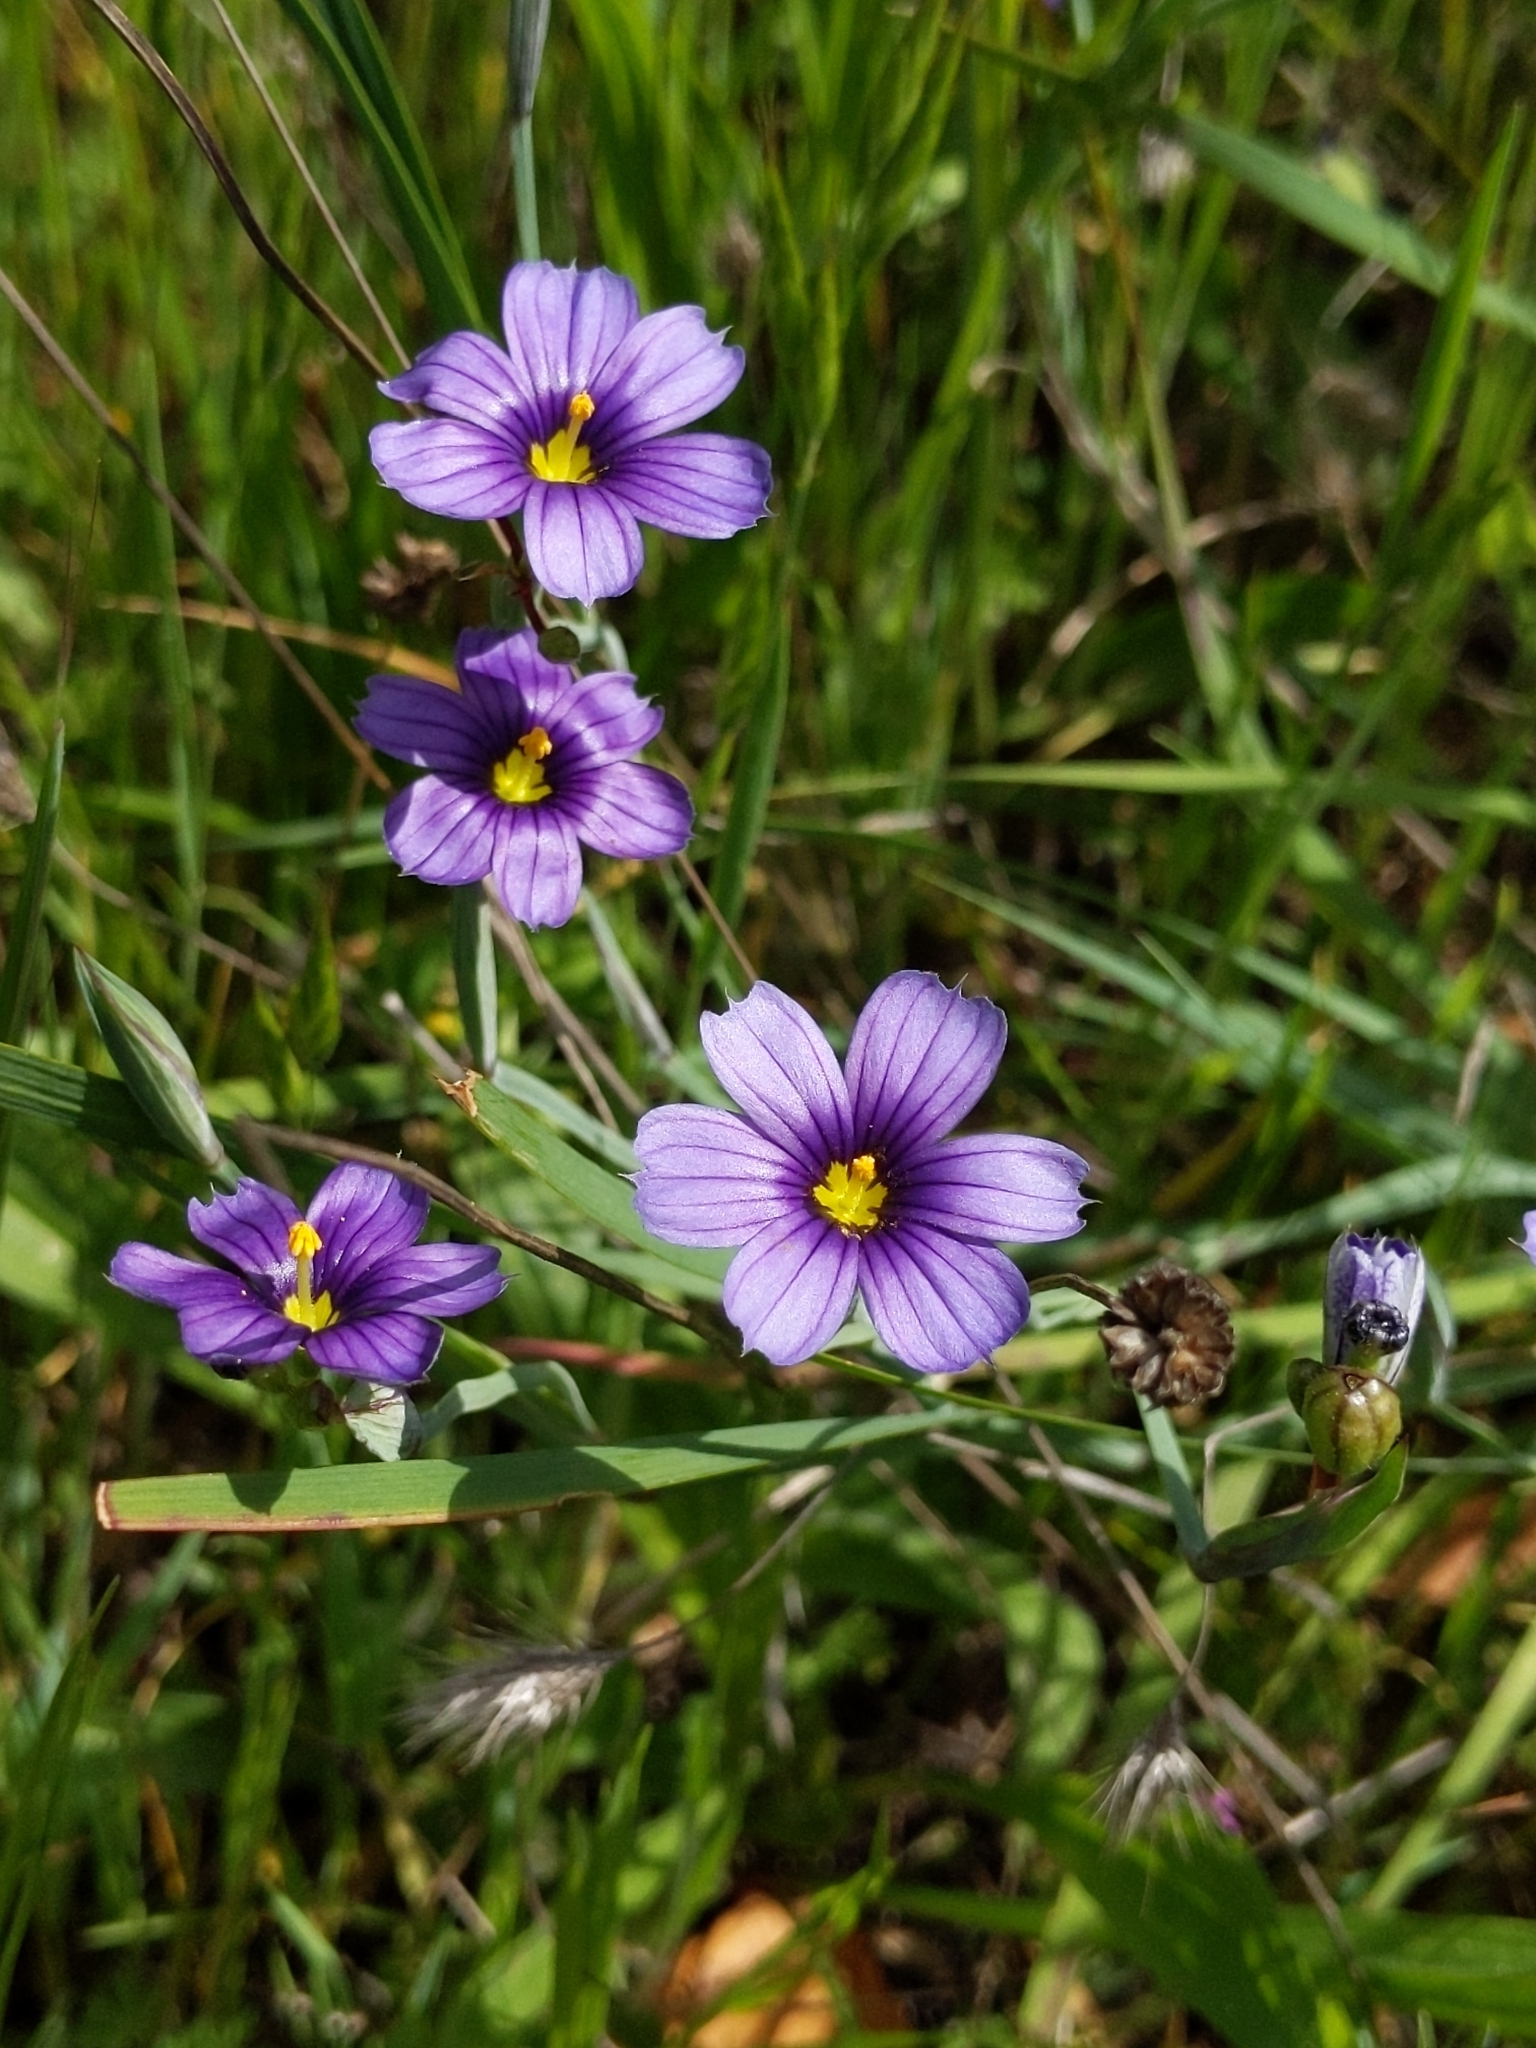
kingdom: Plantae
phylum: Tracheophyta
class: Liliopsida
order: Asparagales
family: Iridaceae
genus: Sisyrinchium
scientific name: Sisyrinchium bellum
